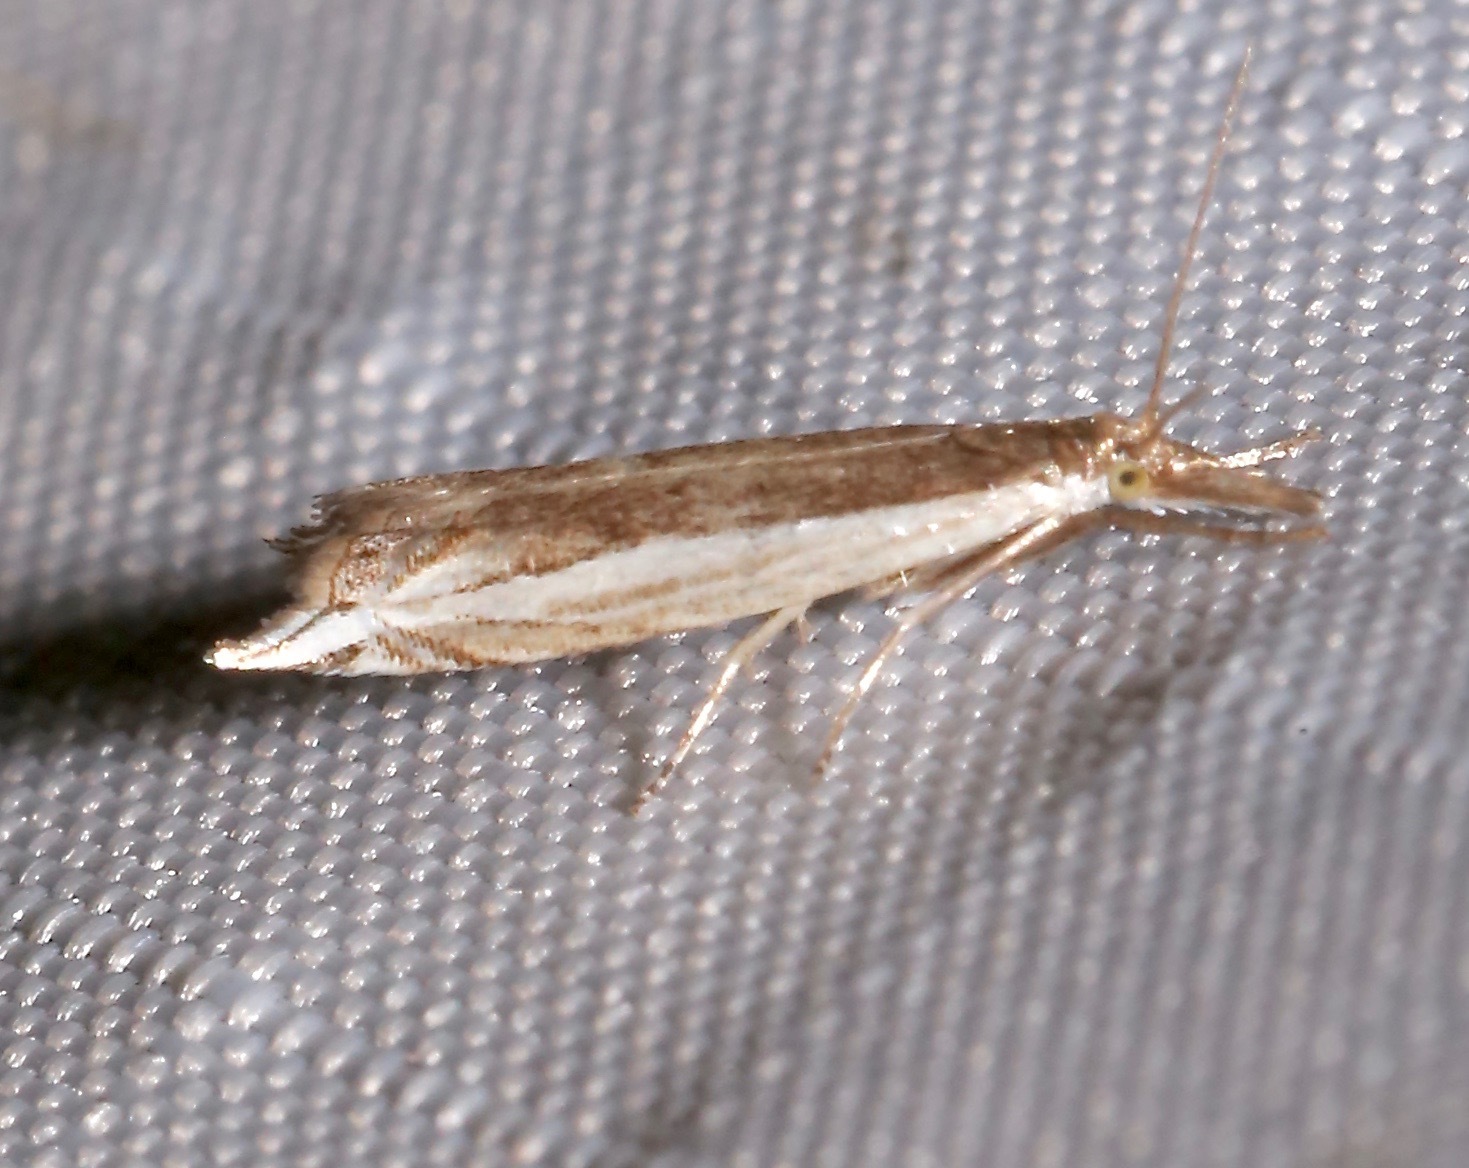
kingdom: Animalia
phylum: Arthropoda
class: Insecta
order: Lepidoptera
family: Crambidae
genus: Raphiptera
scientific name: Raphiptera argillaceellus
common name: Diminutive grass-veneer
